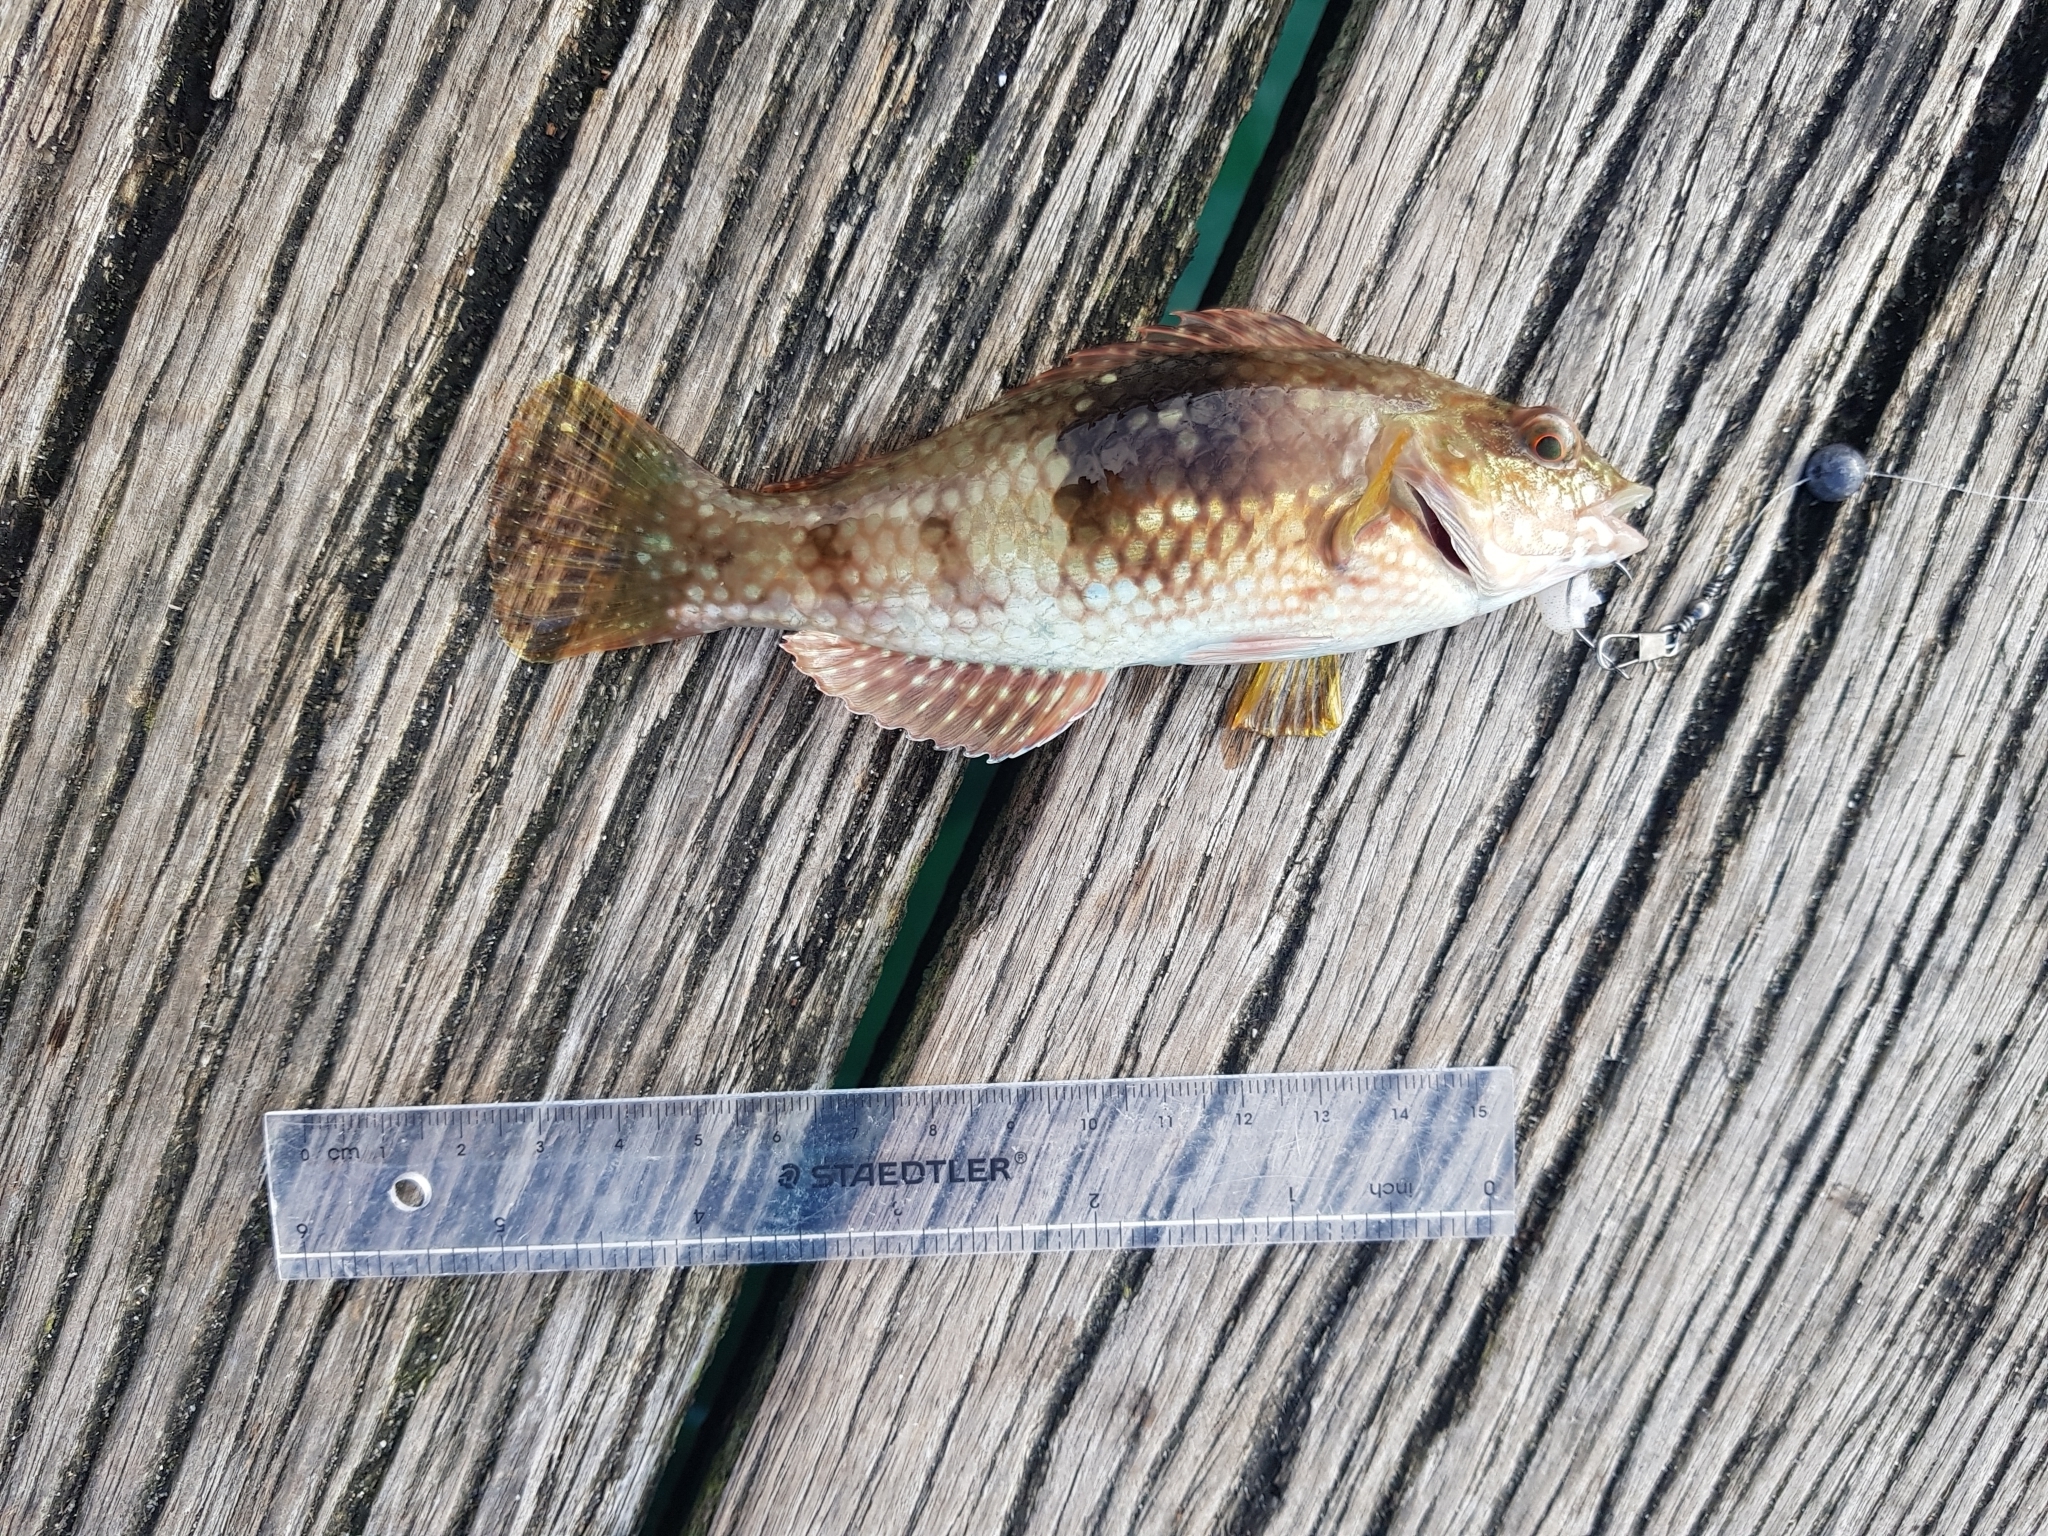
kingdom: Animalia
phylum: Chordata
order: Perciformes
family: Labridae
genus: Notolabrus
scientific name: Notolabrus tetricus
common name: Blue-throated parrotfish
